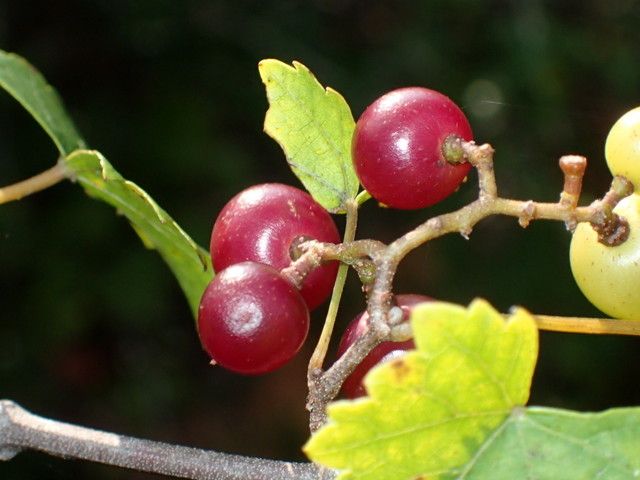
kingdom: Plantae
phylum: Tracheophyta
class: Magnoliopsida
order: Vitales
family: Vitaceae
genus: Vitis
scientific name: Vitis rotundifolia
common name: Muscadine grape
